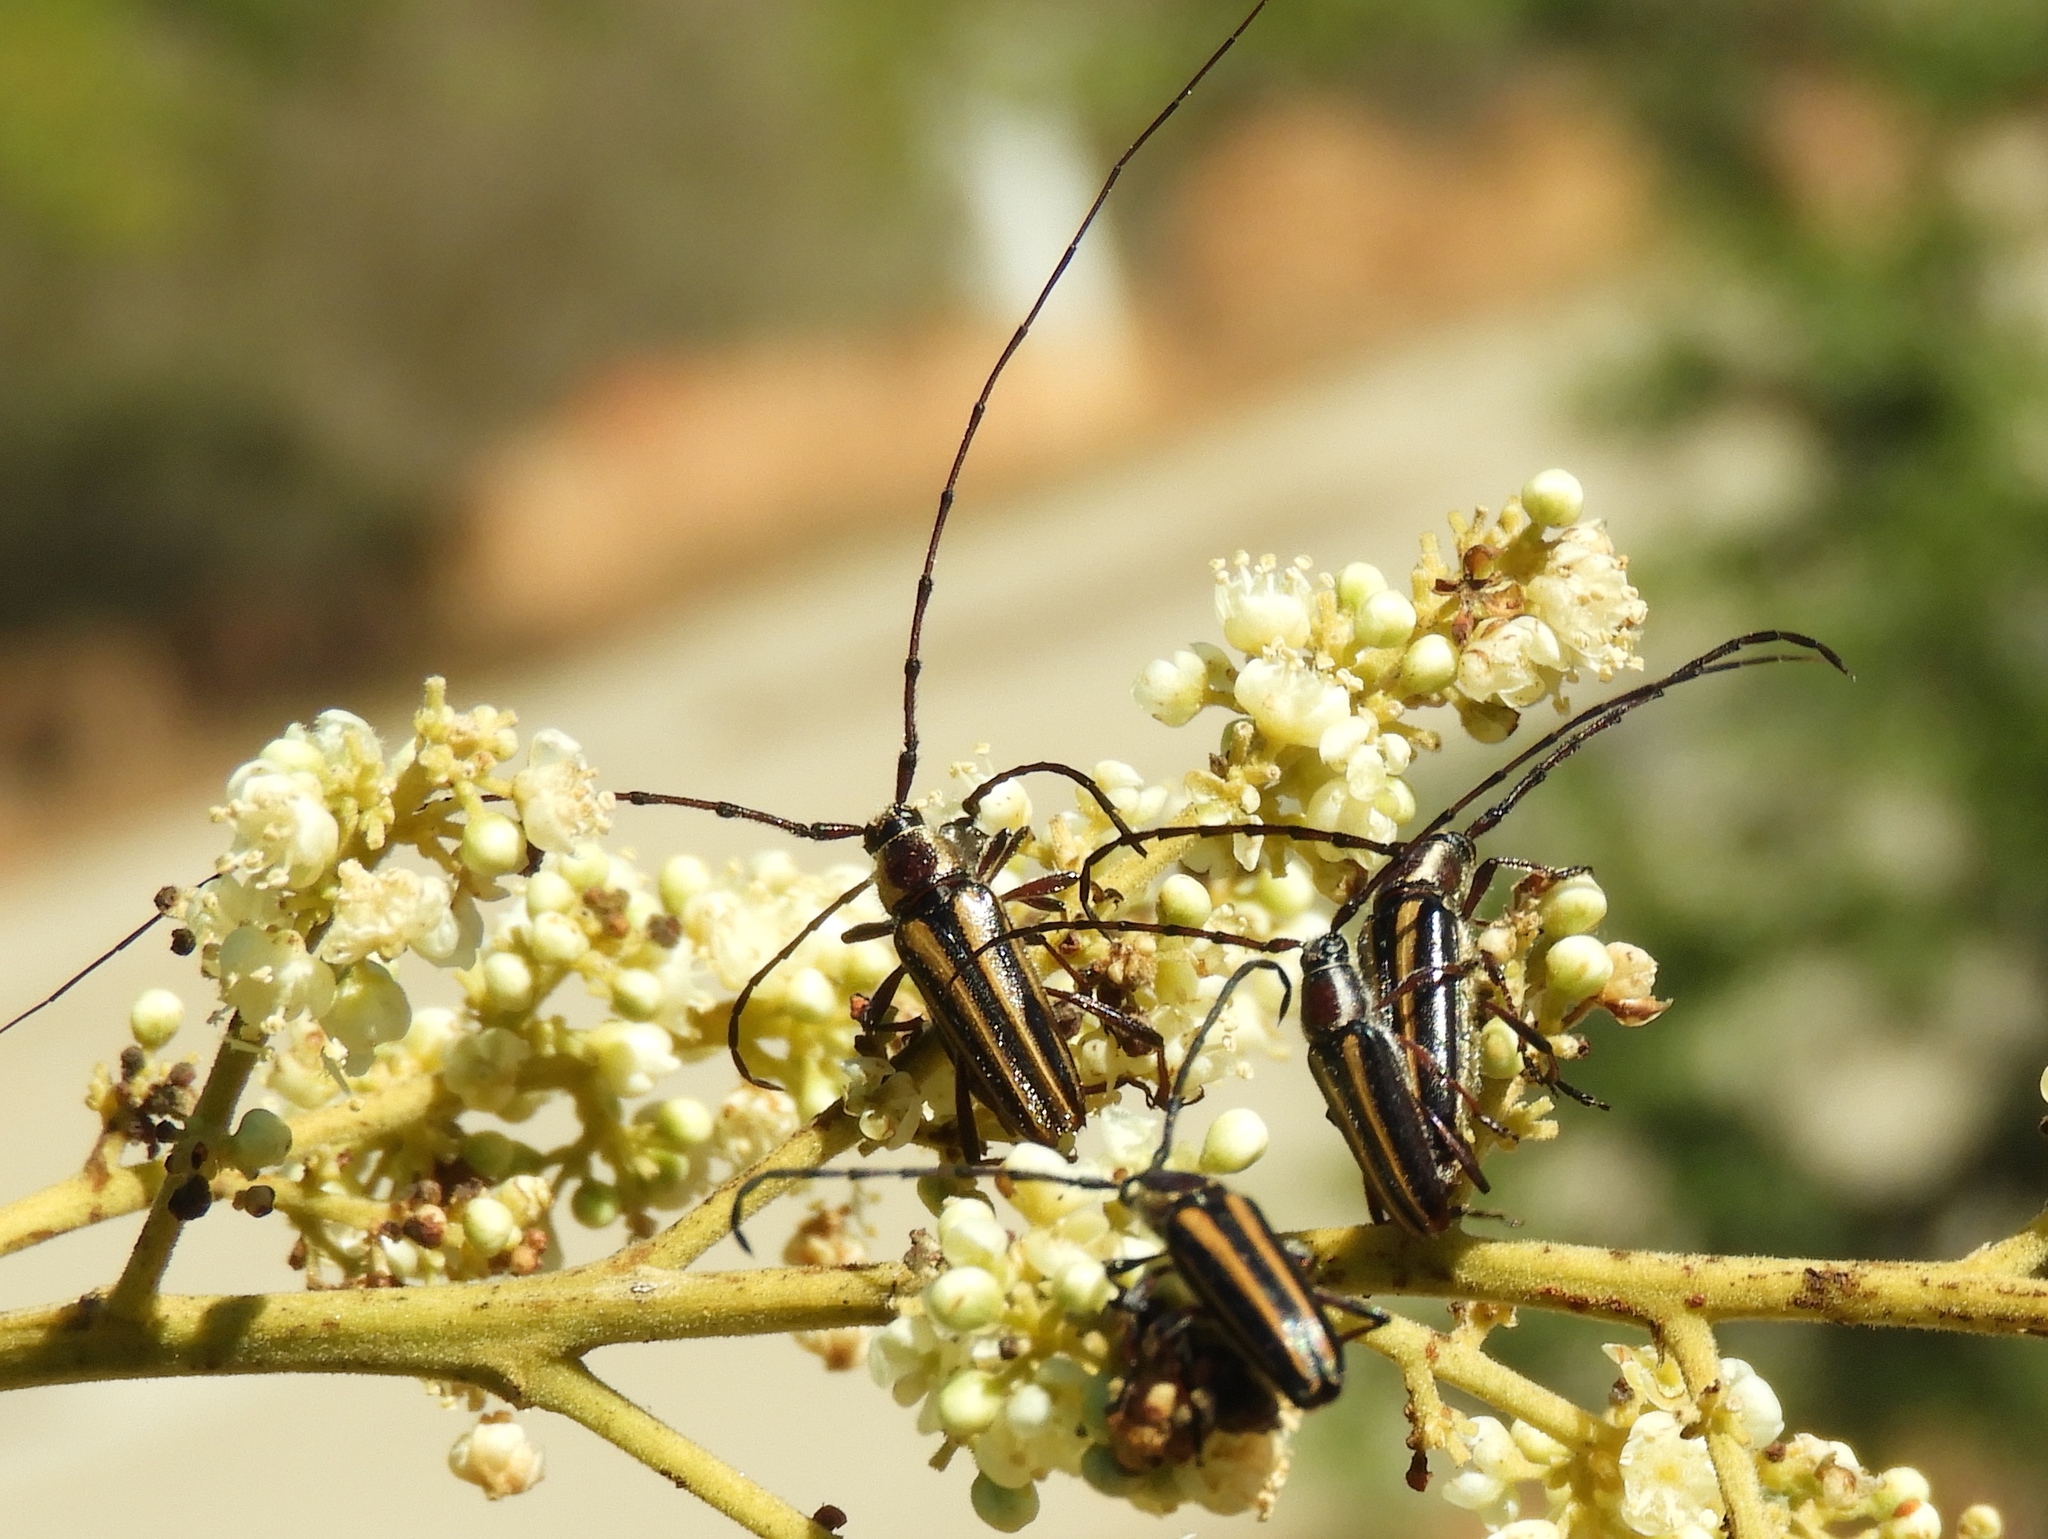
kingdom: Animalia
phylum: Arthropoda
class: Insecta
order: Coleoptera
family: Cerambycidae
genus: Sphaenothecus
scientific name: Sphaenothecus maccartyi
